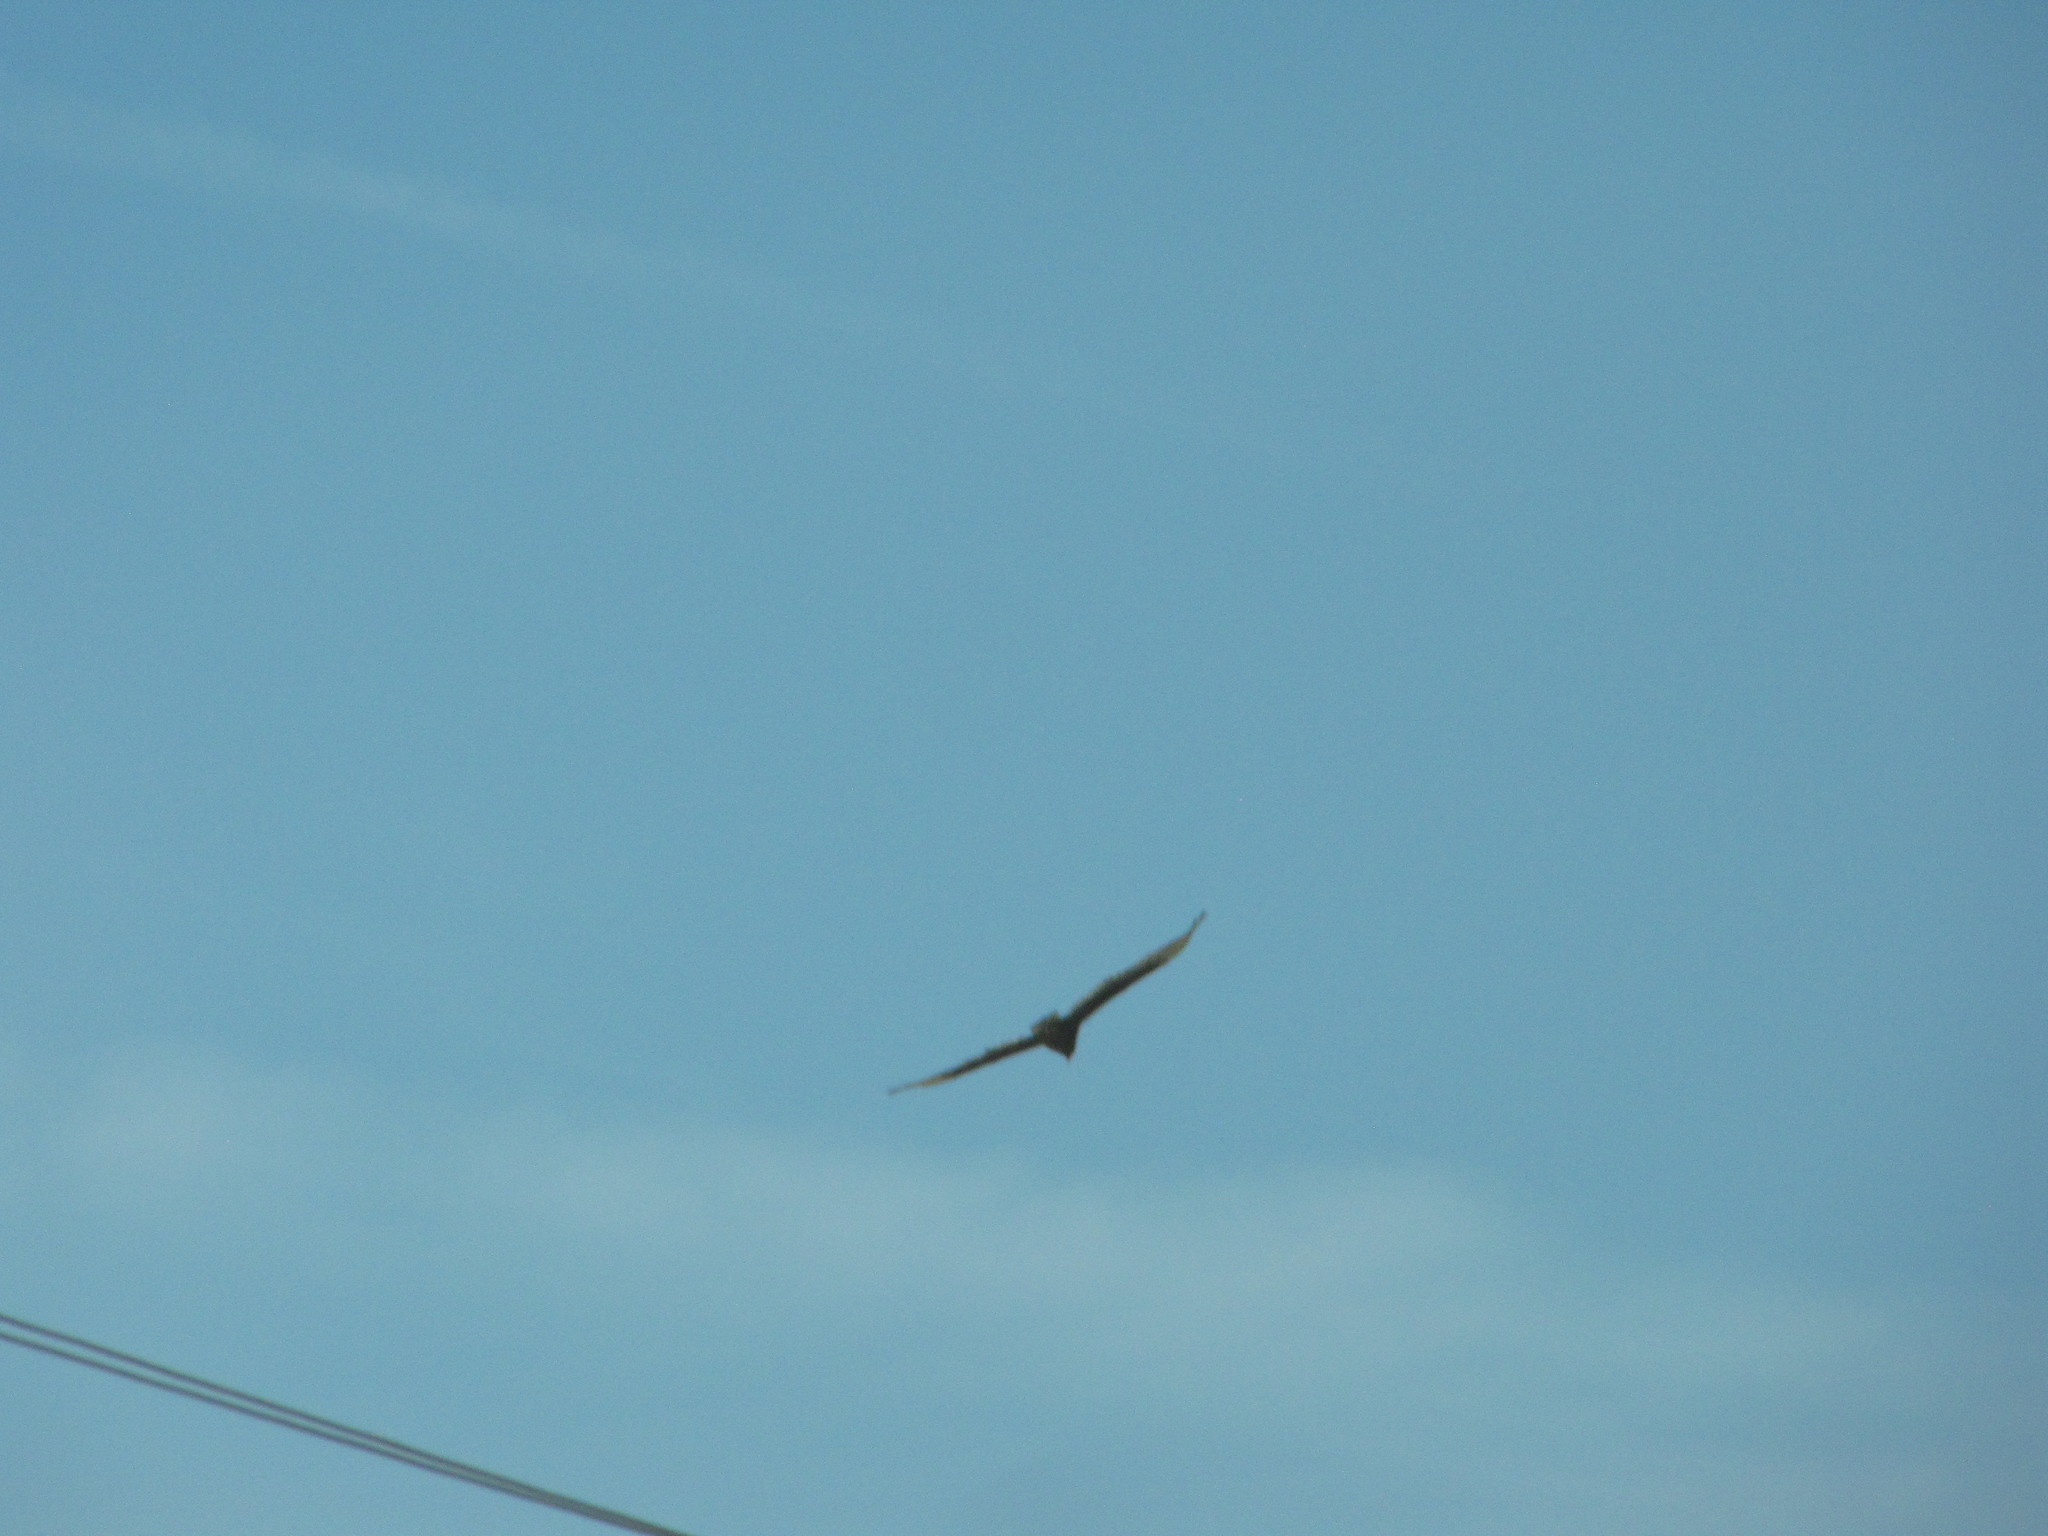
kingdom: Animalia
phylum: Chordata
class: Aves
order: Accipitriformes
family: Cathartidae
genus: Cathartes
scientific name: Cathartes aura
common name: Turkey vulture
